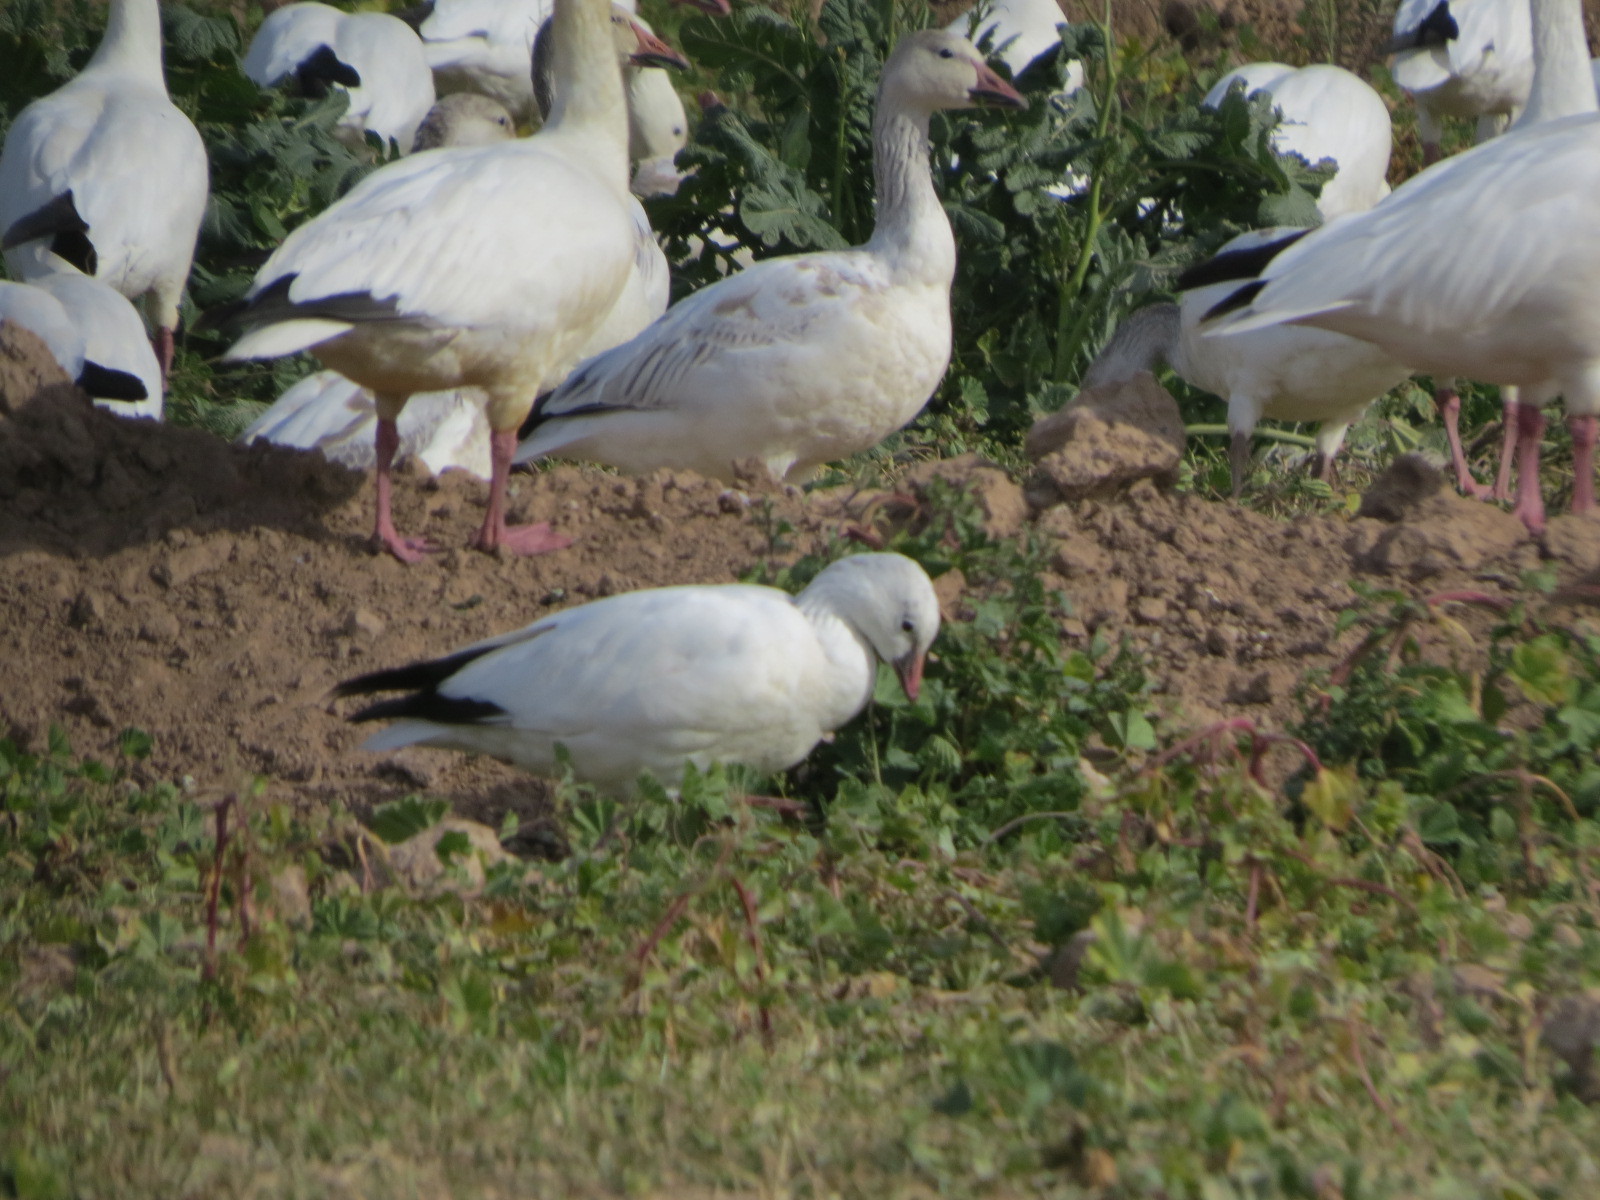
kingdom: Animalia
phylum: Chordata
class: Aves
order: Anseriformes
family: Anatidae
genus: Anser
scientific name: Anser rossii
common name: Ross's goose
